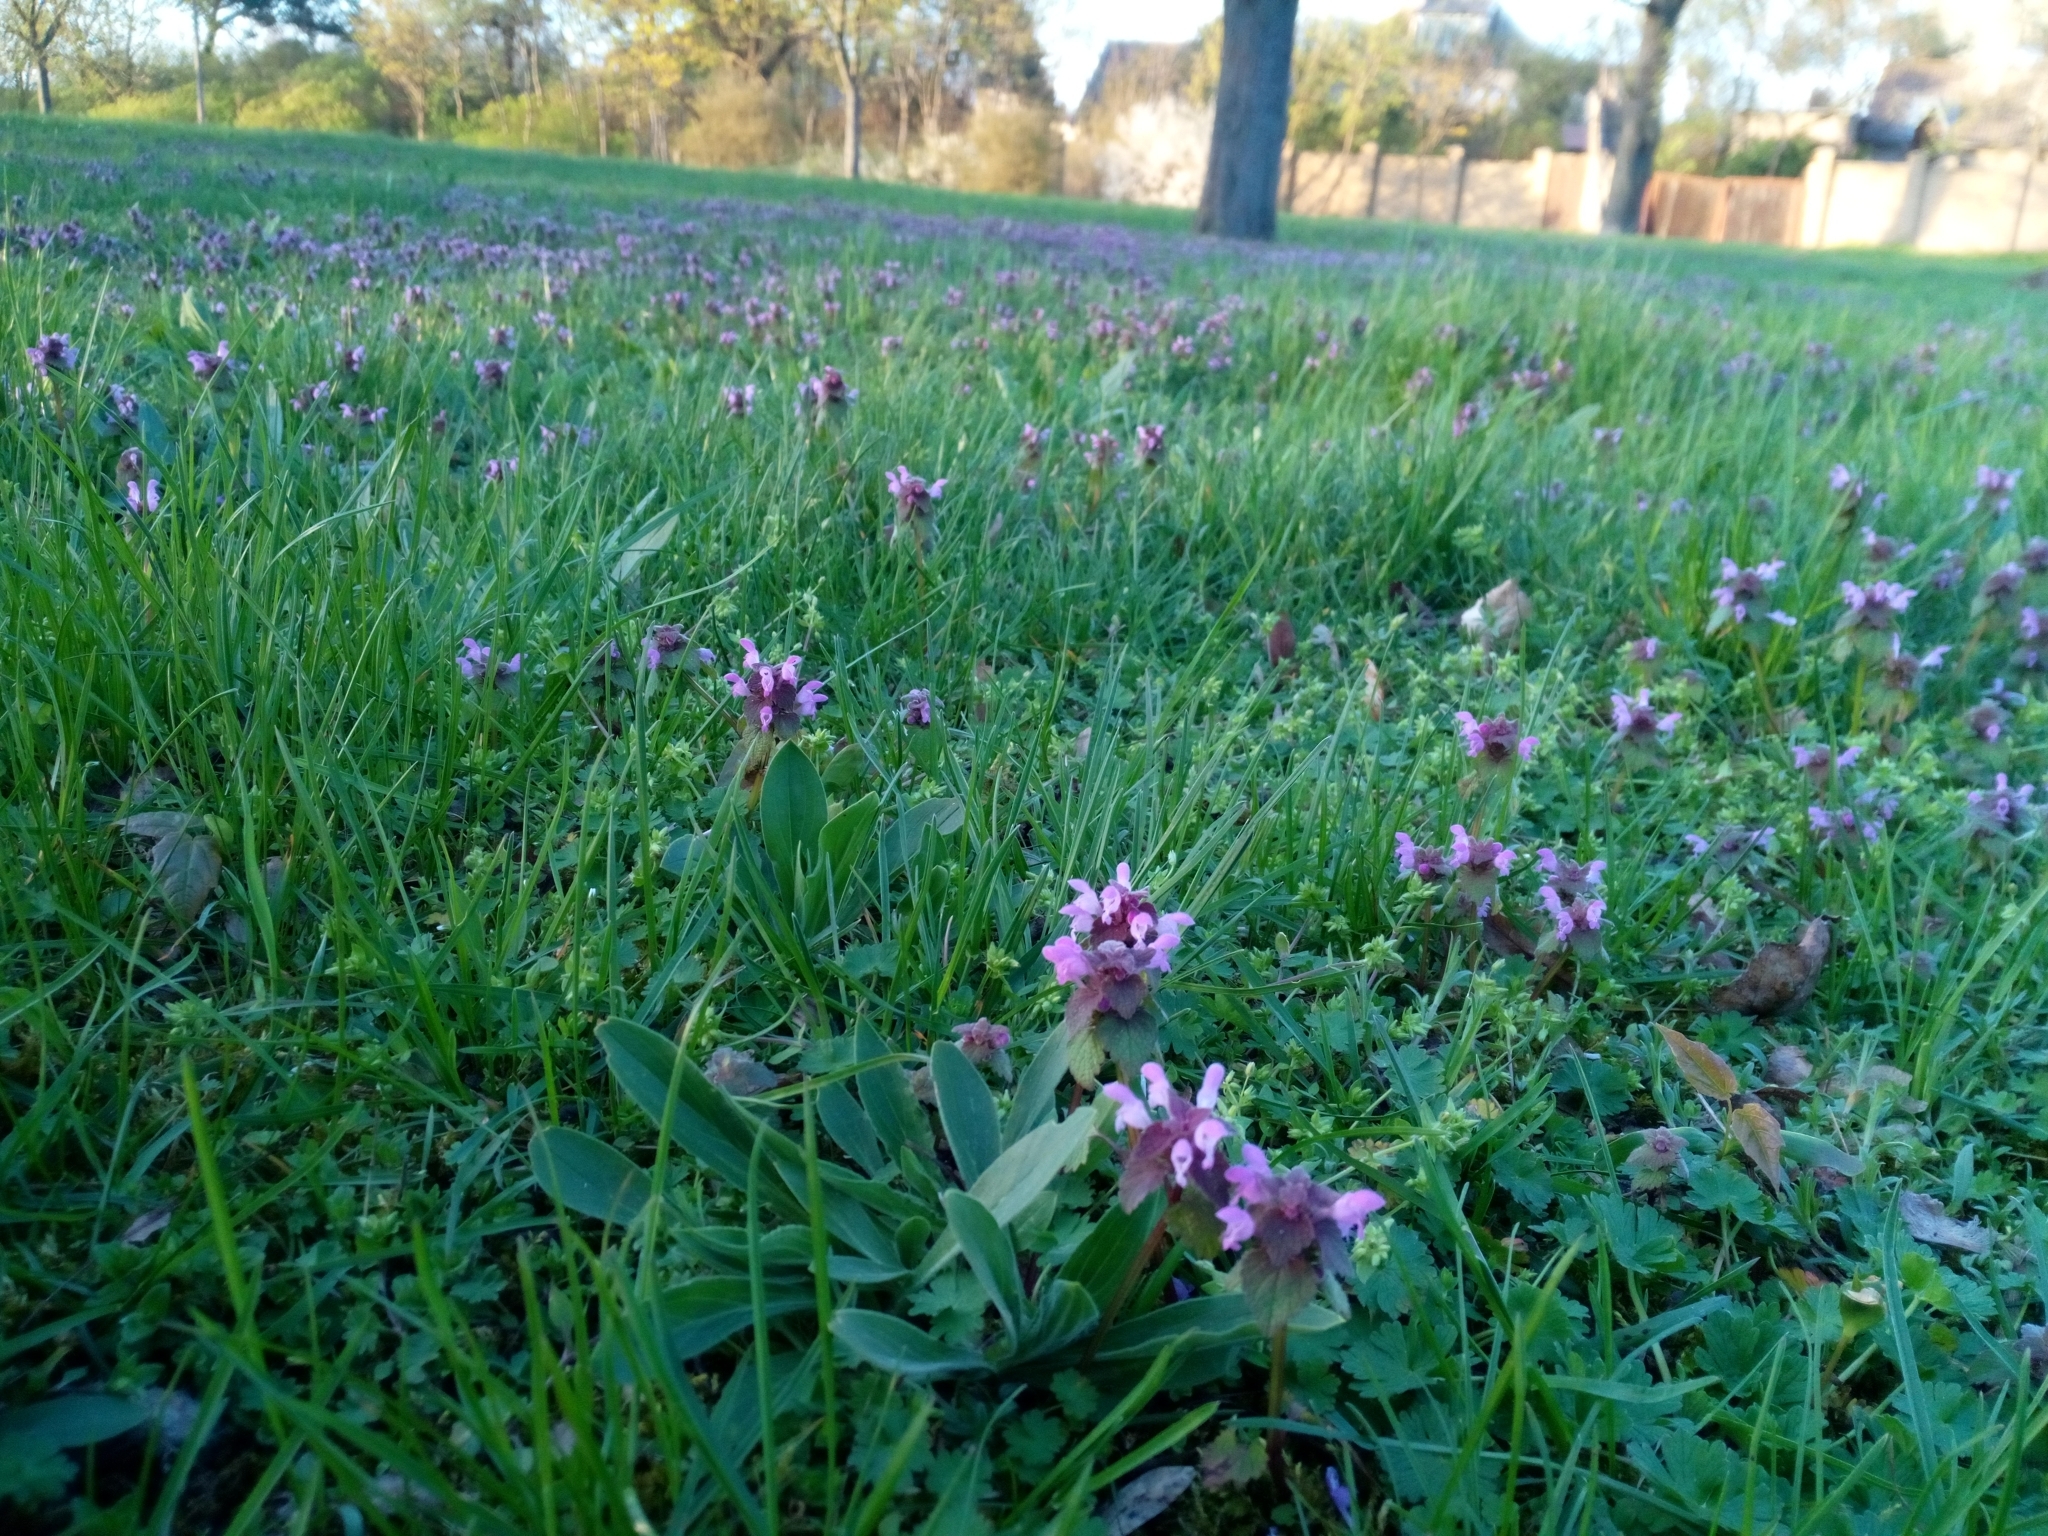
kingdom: Plantae
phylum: Tracheophyta
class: Magnoliopsida
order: Lamiales
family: Lamiaceae
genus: Lamium
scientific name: Lamium purpureum
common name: Red dead-nettle
